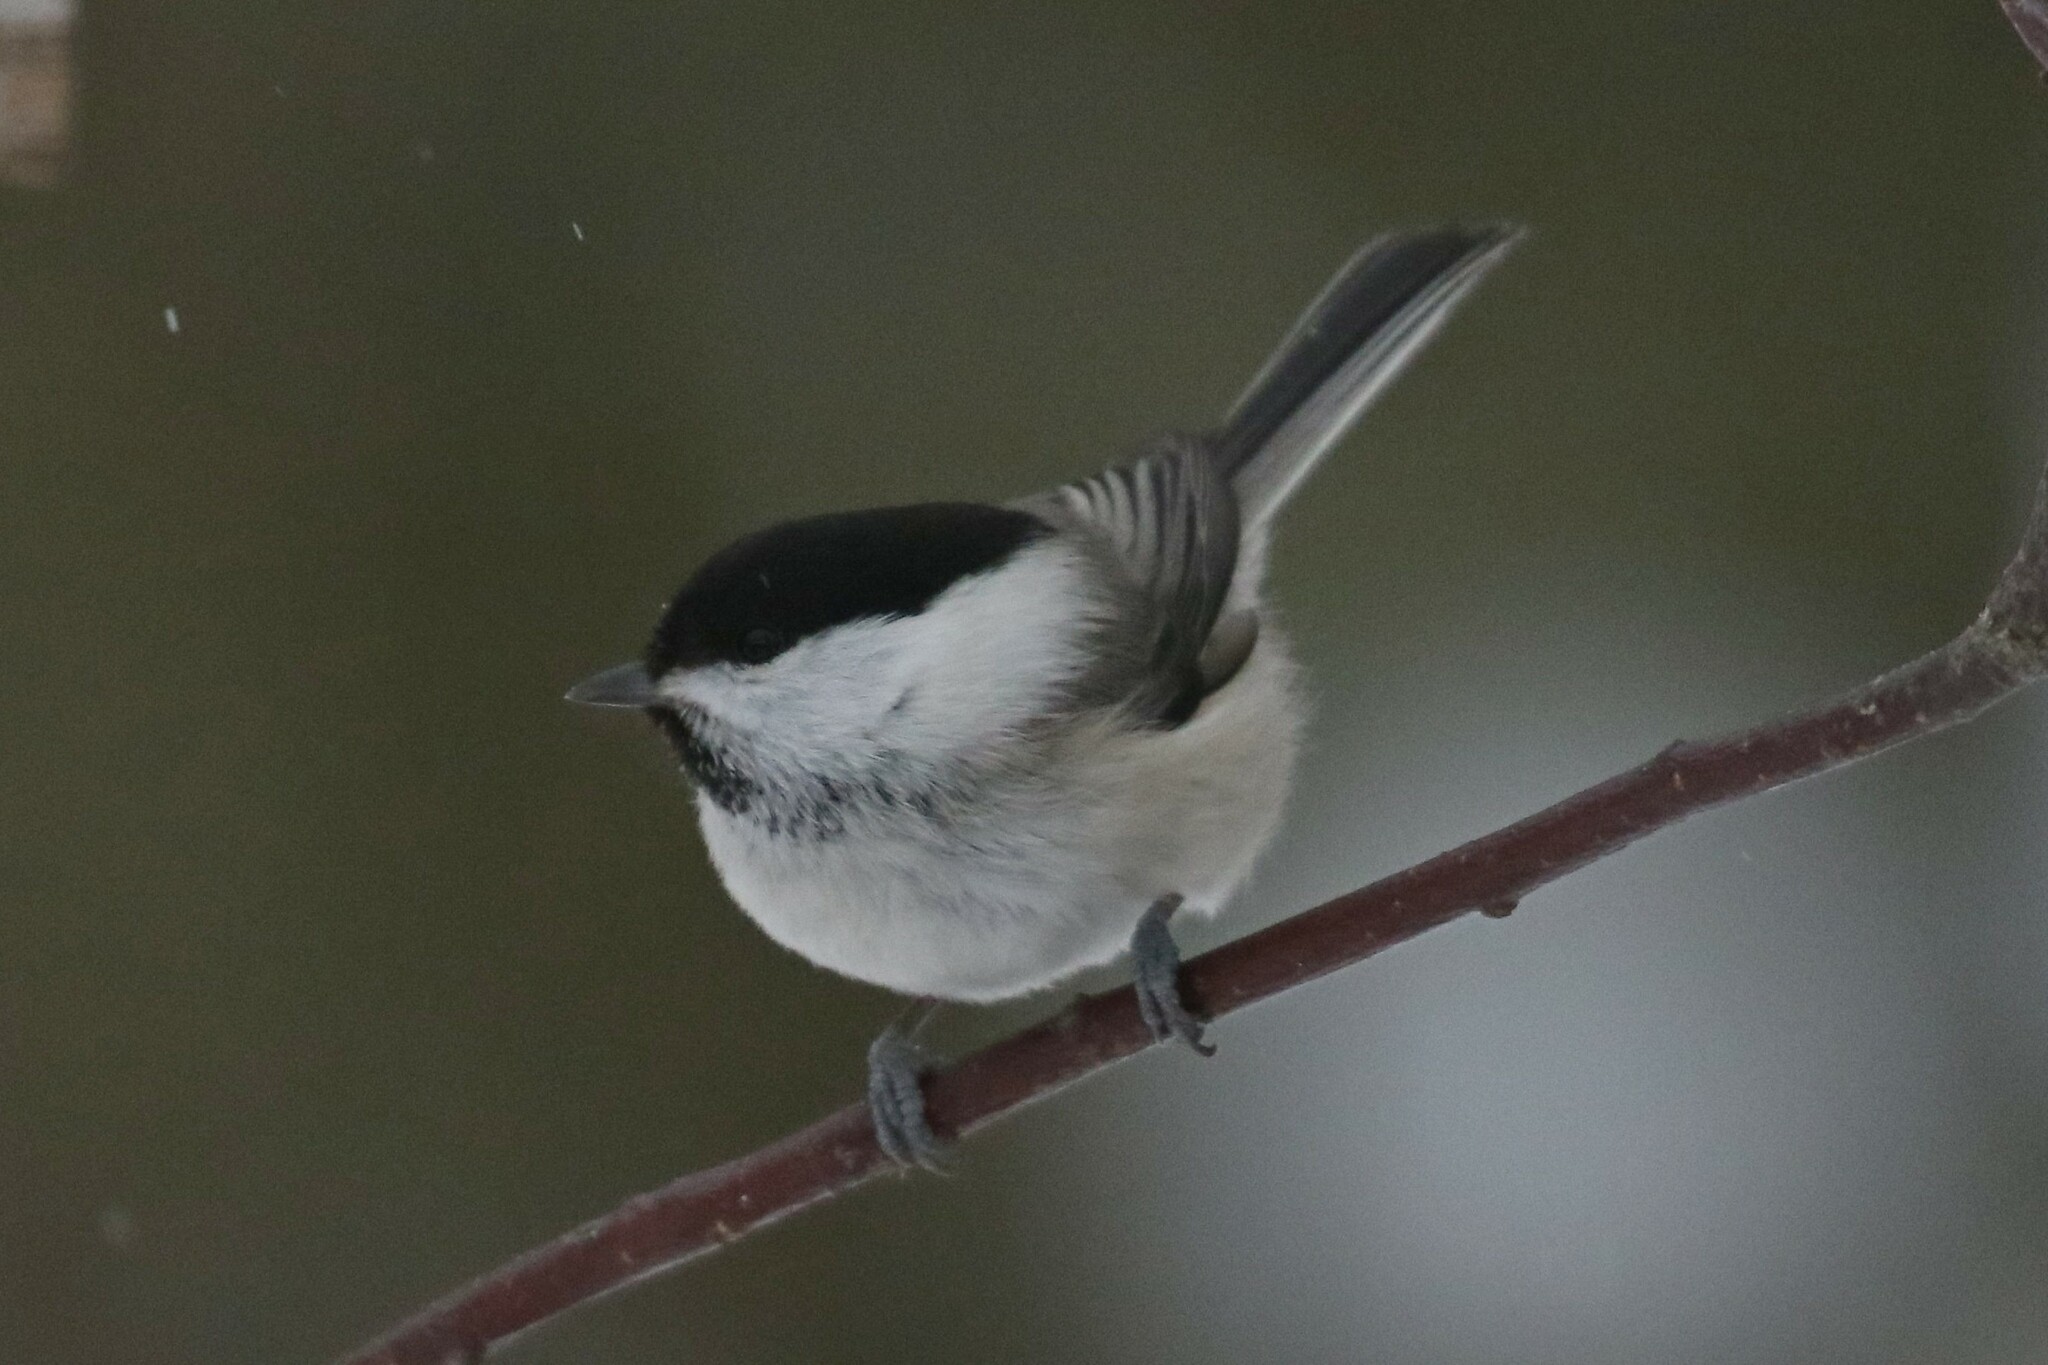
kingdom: Animalia
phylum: Chordata
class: Aves
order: Passeriformes
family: Paridae
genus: Poecile
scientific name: Poecile montanus
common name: Willow tit
